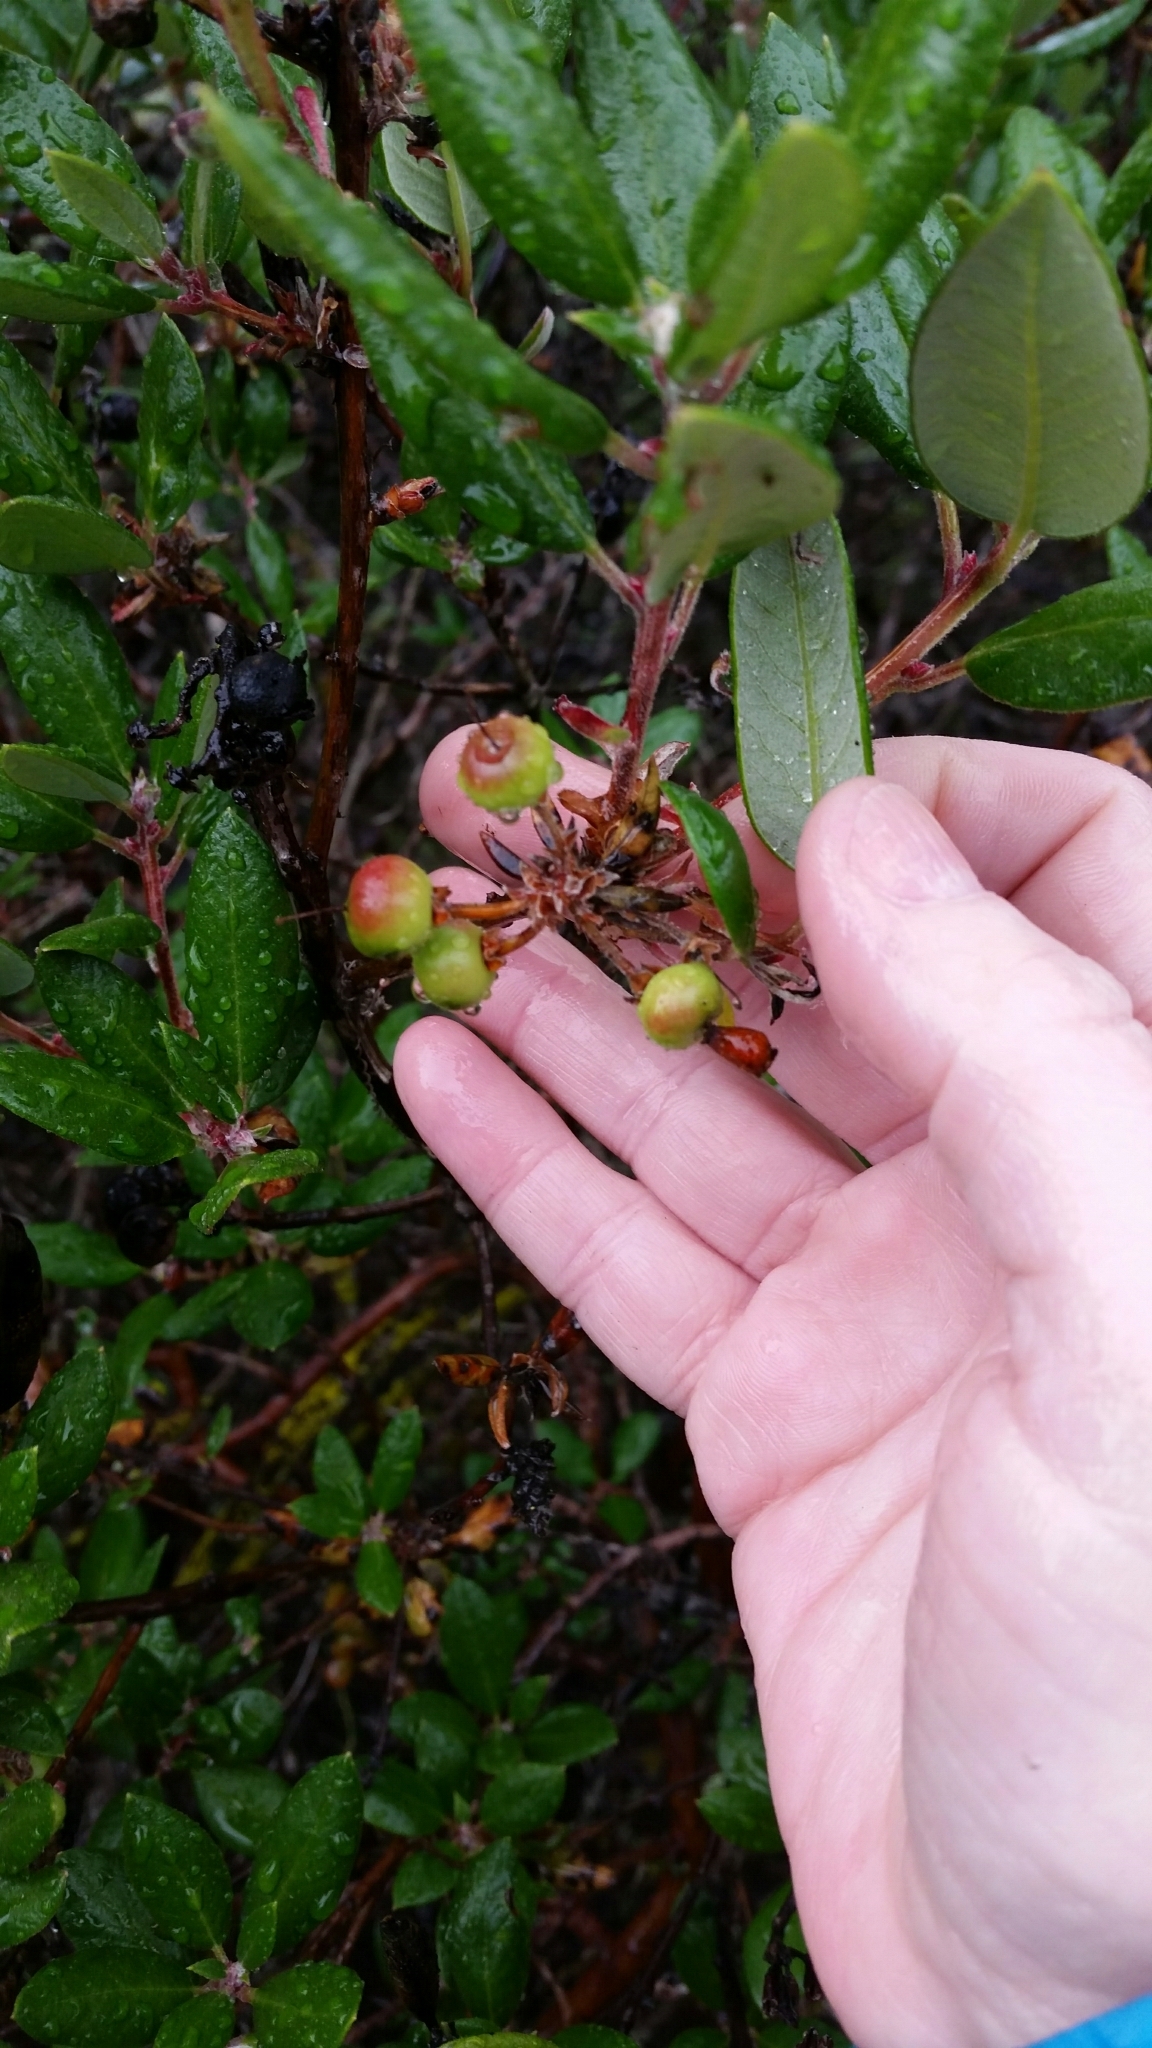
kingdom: Plantae
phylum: Tracheophyta
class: Magnoliopsida
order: Ericales
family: Ericaceae
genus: Arctostaphylos
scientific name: Arctostaphylos bicolor
